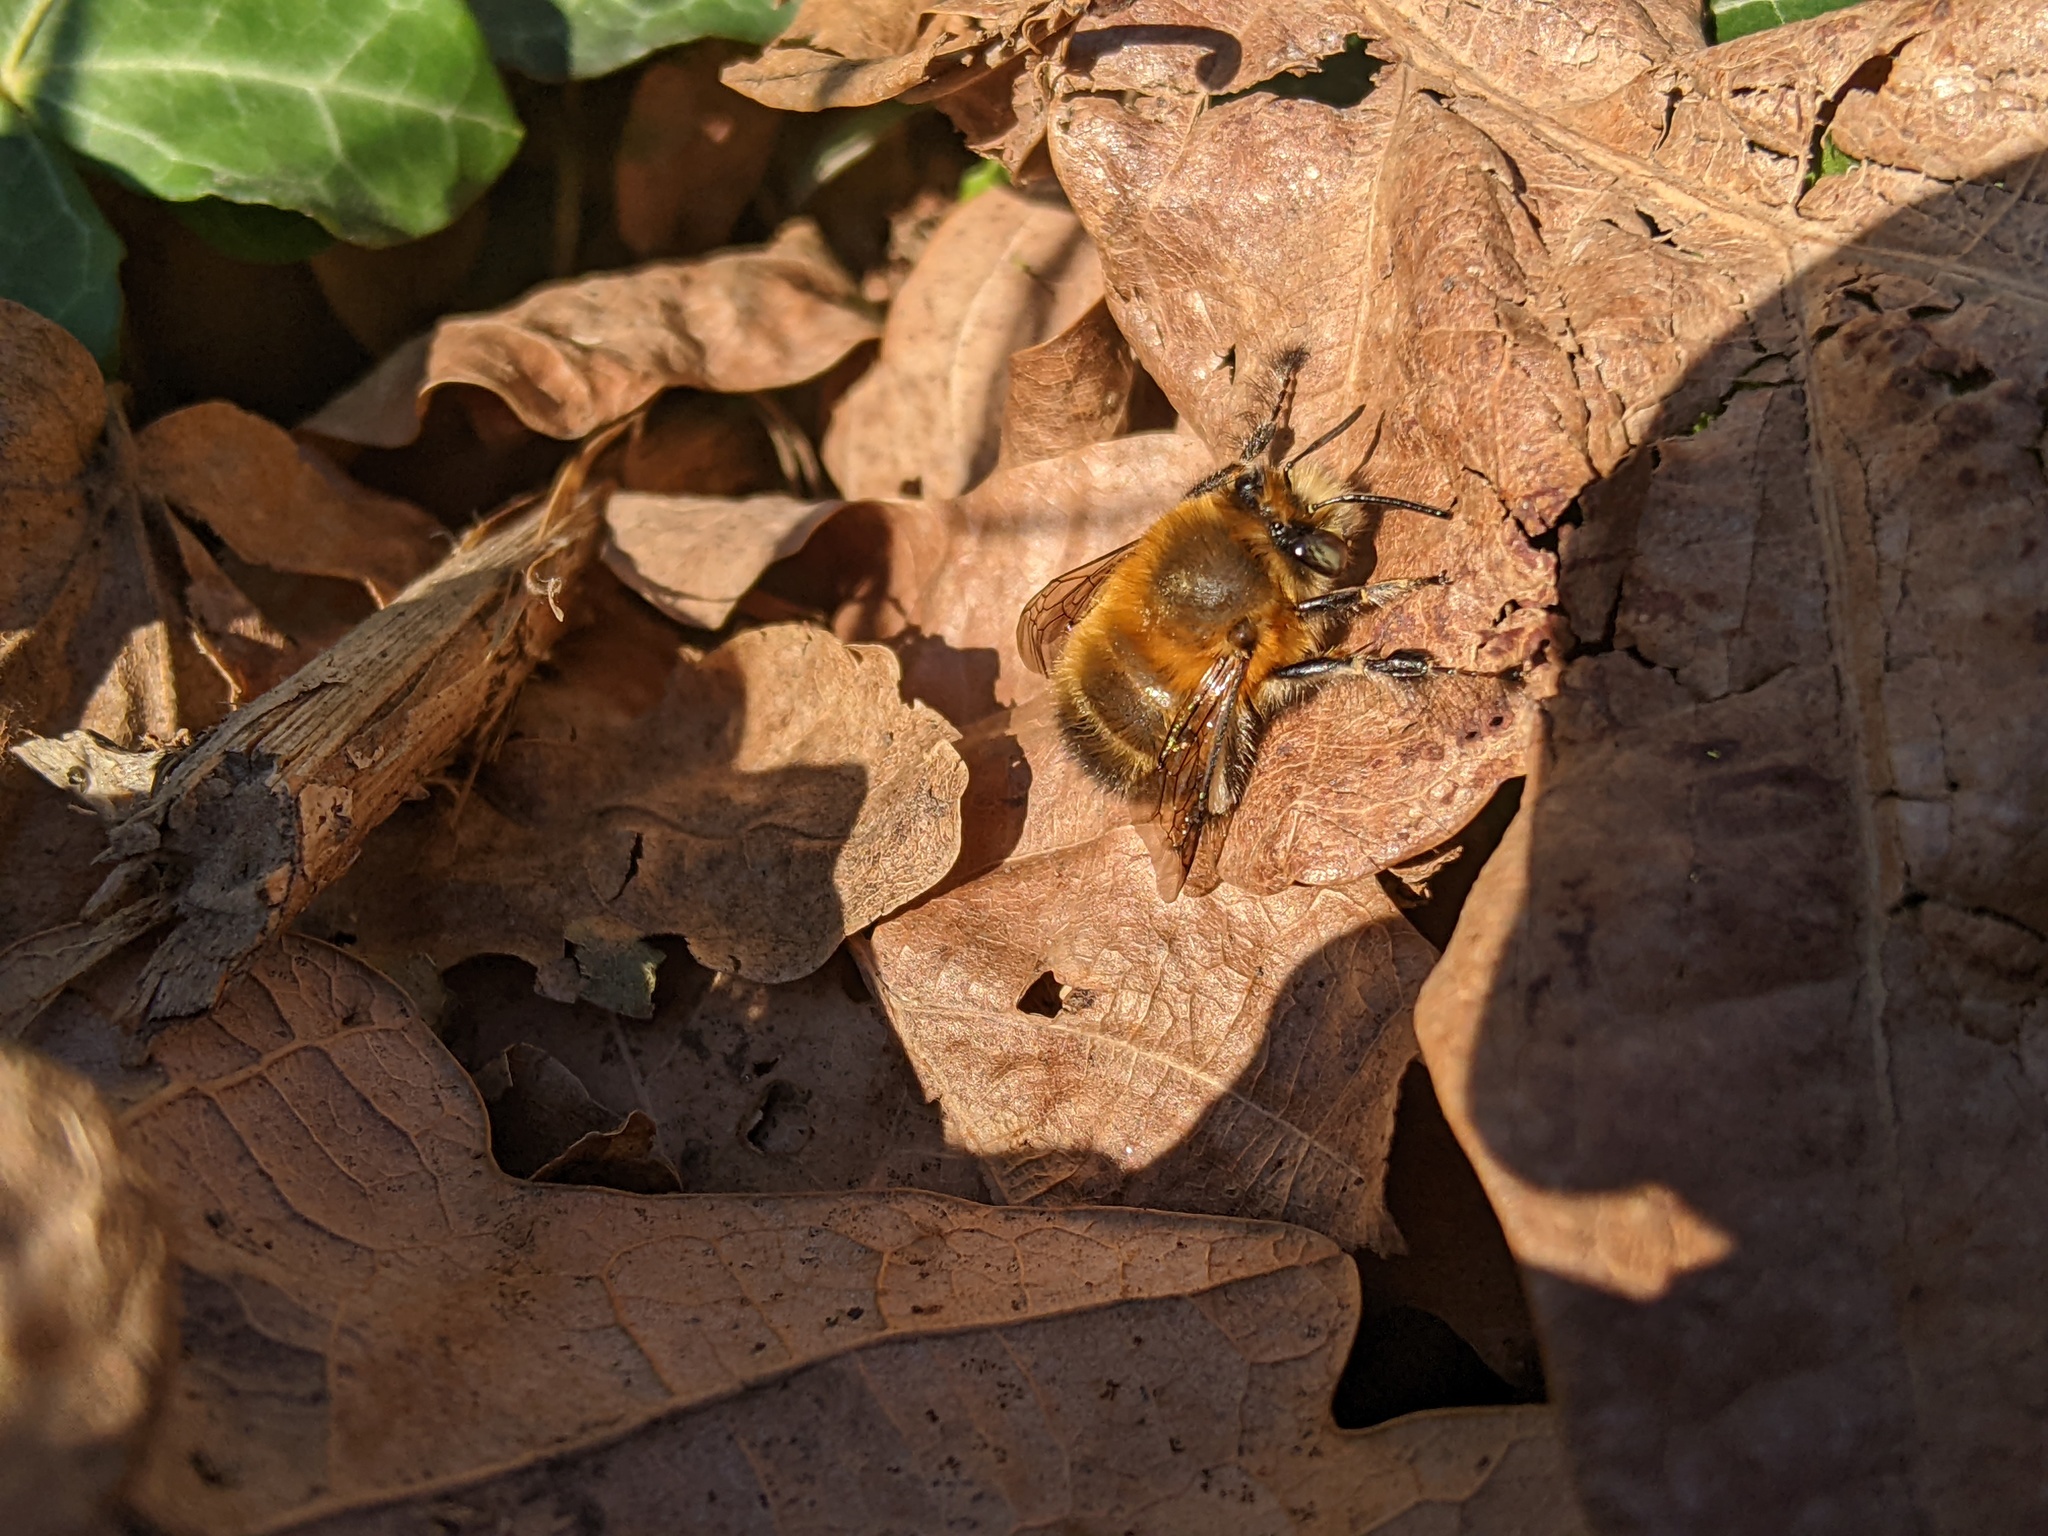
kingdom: Animalia
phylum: Arthropoda
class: Insecta
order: Hymenoptera
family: Apidae
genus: Anthophora
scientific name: Anthophora plumipes
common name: Hairy-footed flower bee
